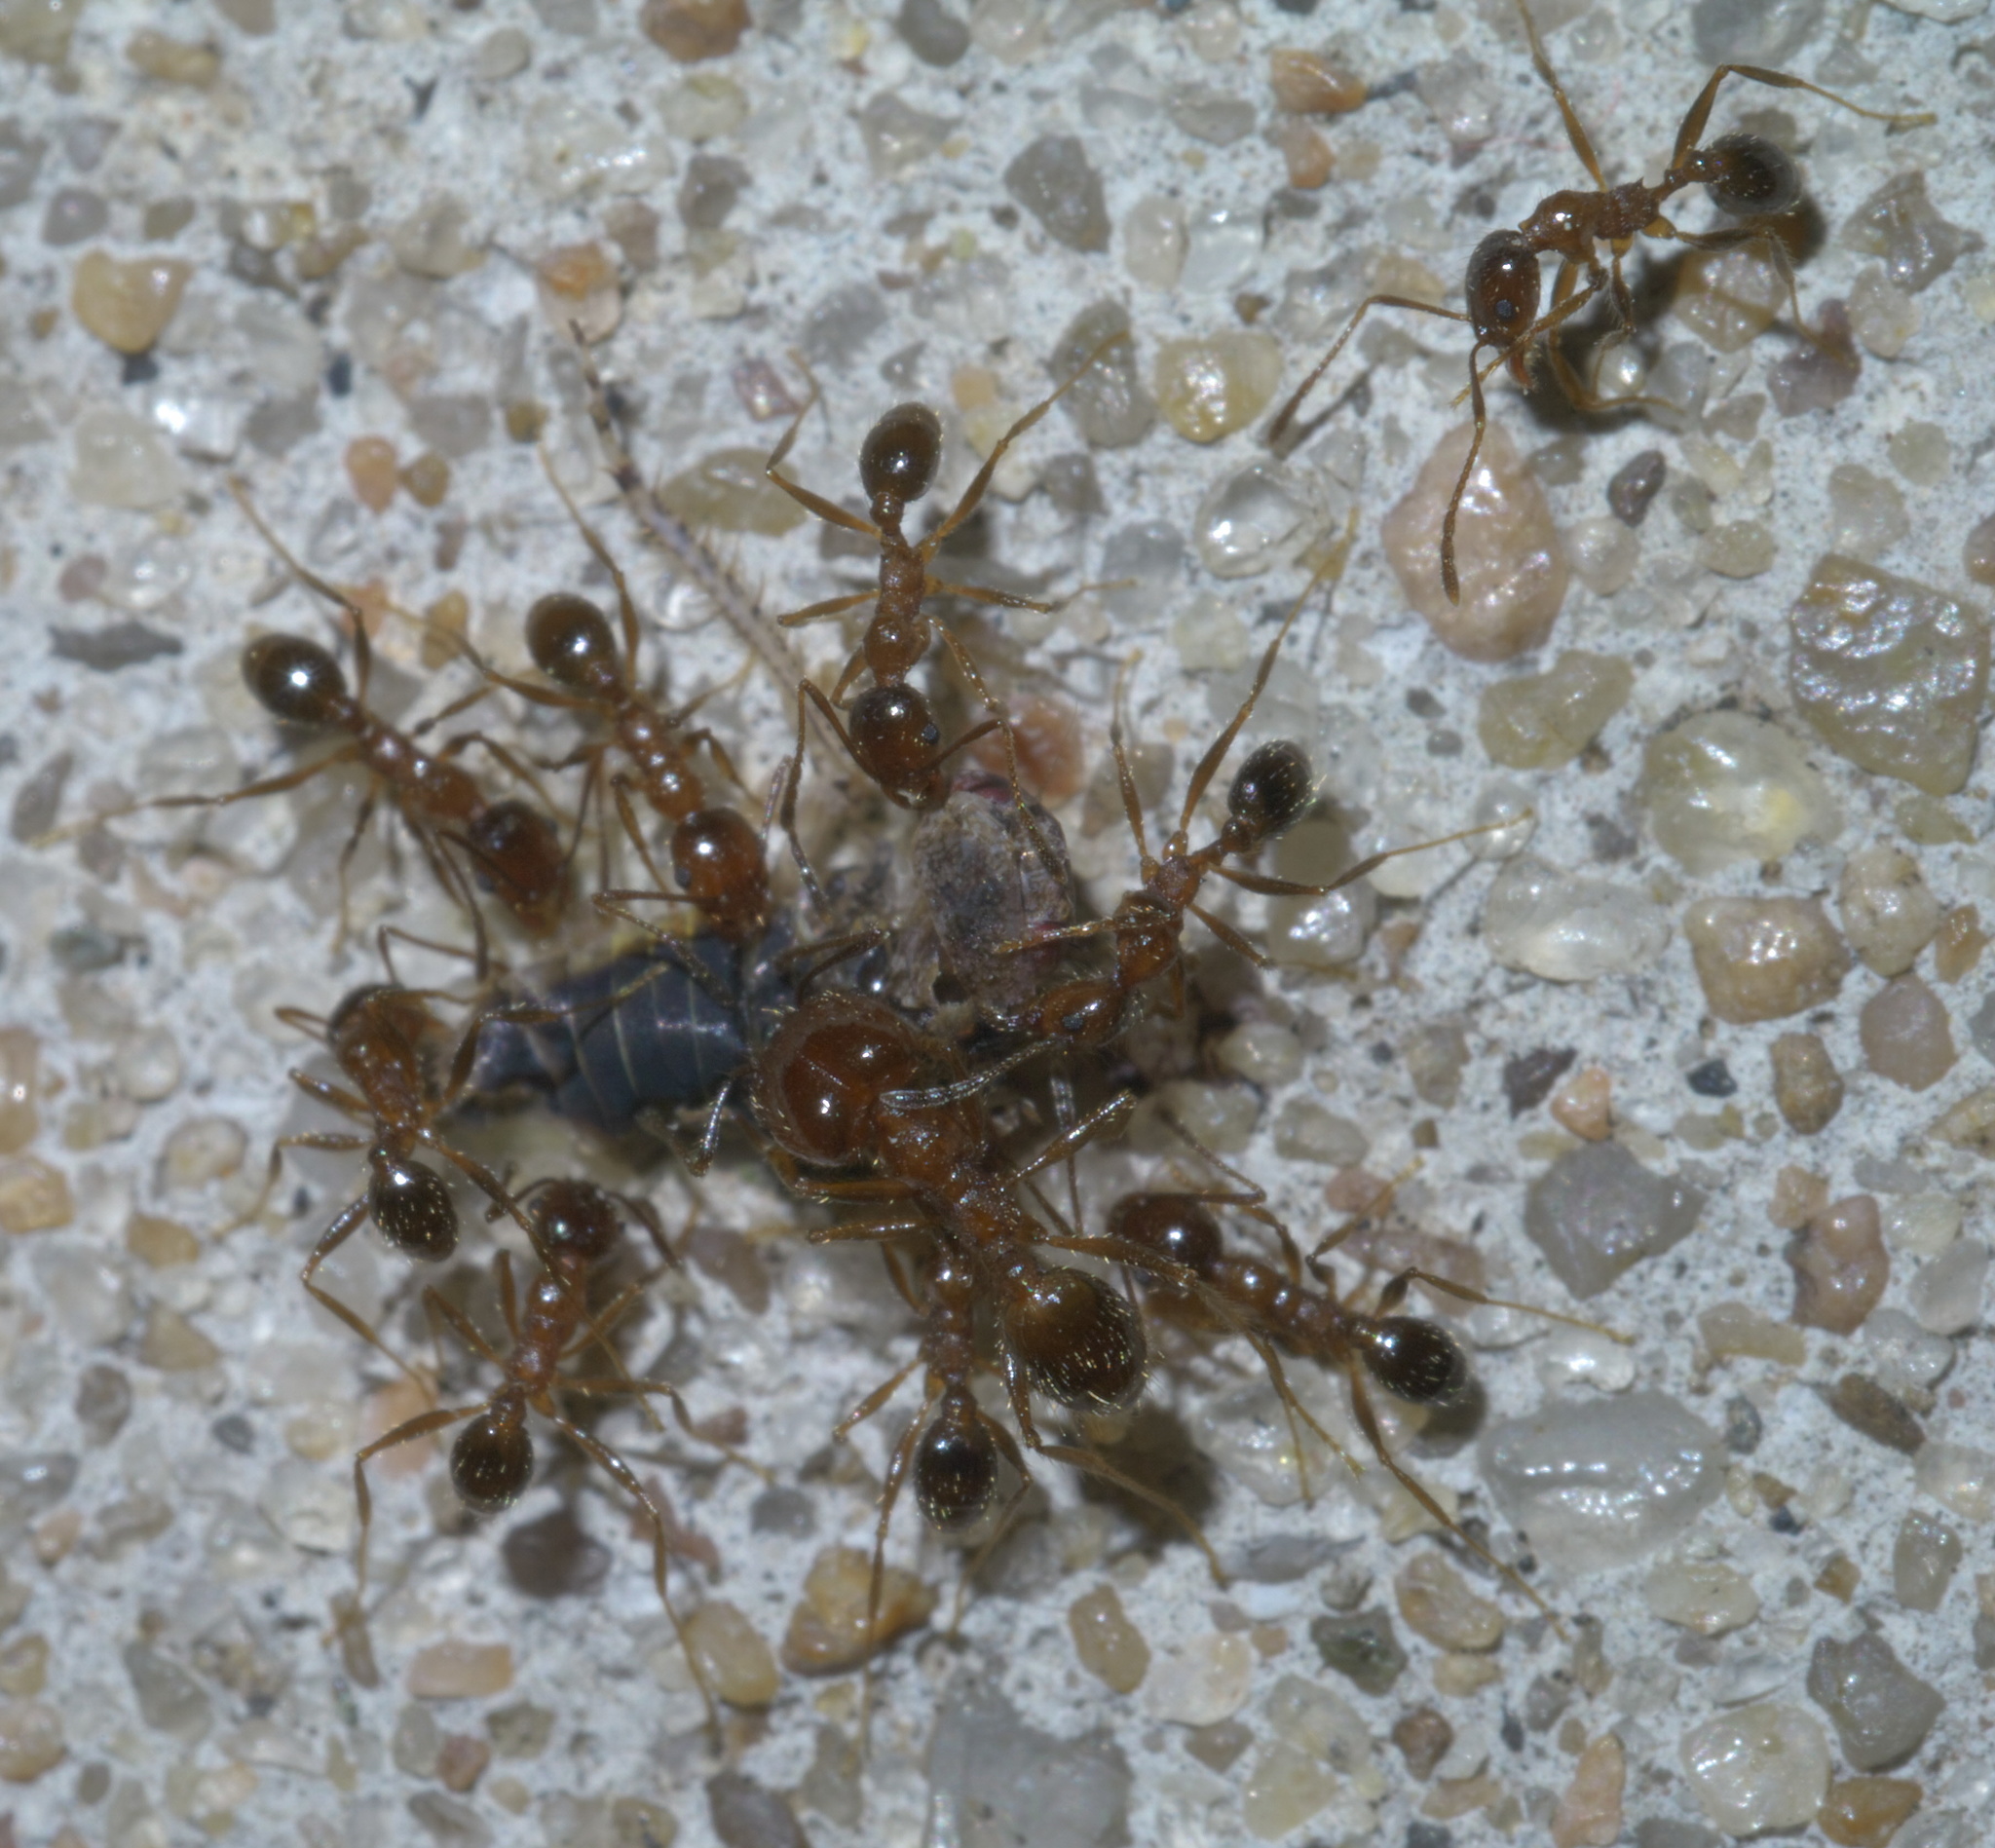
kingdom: Animalia
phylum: Arthropoda
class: Insecta
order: Hymenoptera
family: Formicidae
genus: Pheidole
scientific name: Pheidole dentata
